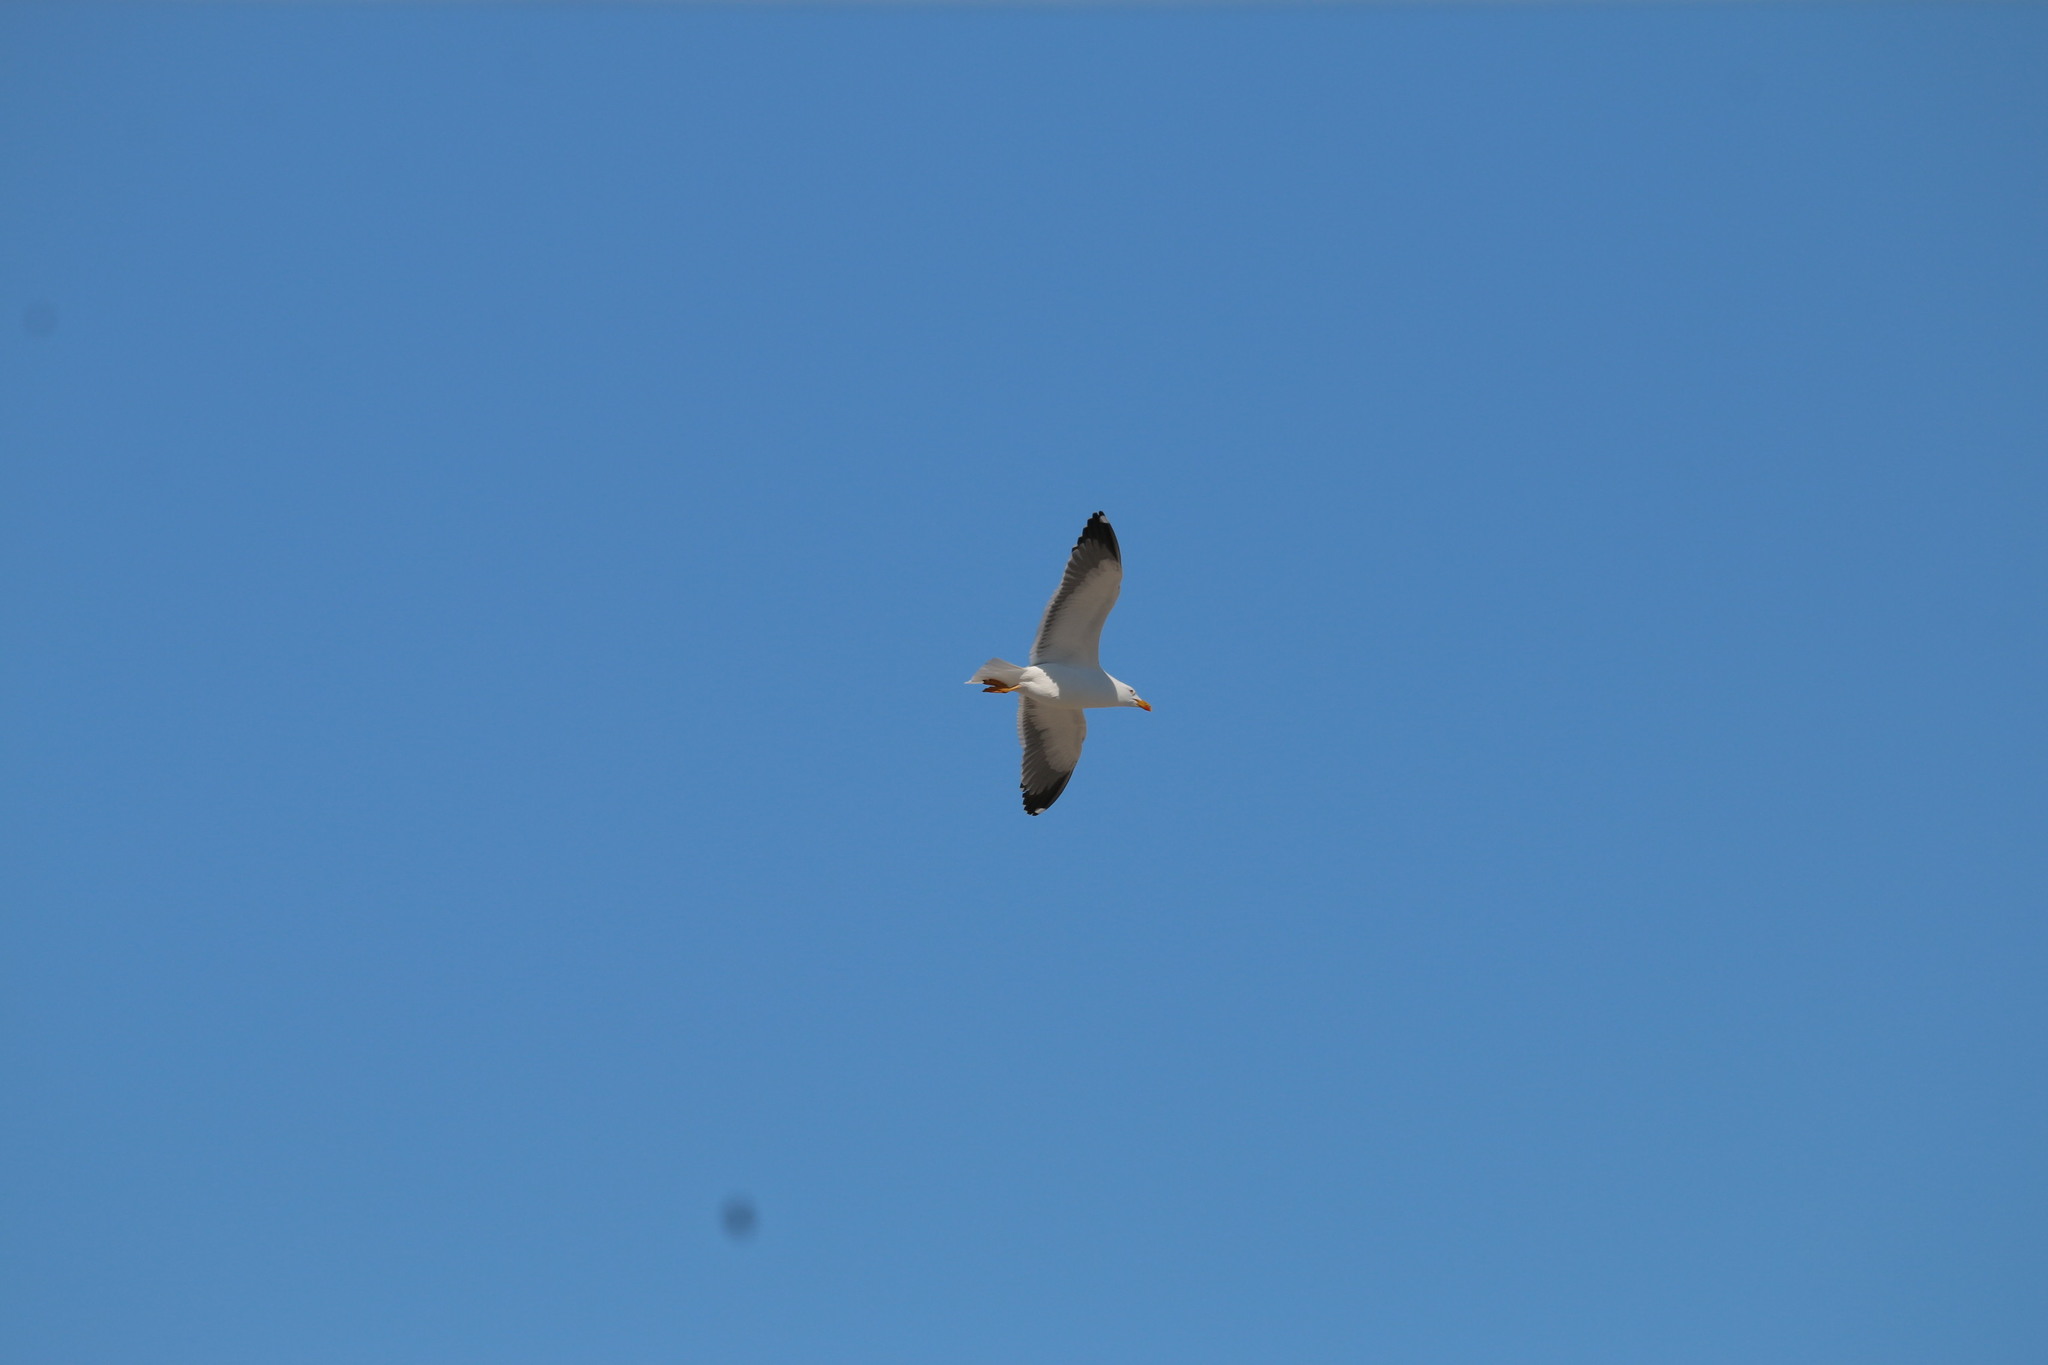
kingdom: Animalia
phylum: Chordata
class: Aves
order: Charadriiformes
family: Laridae
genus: Larus
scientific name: Larus fuscus
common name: Lesser black-backed gull
